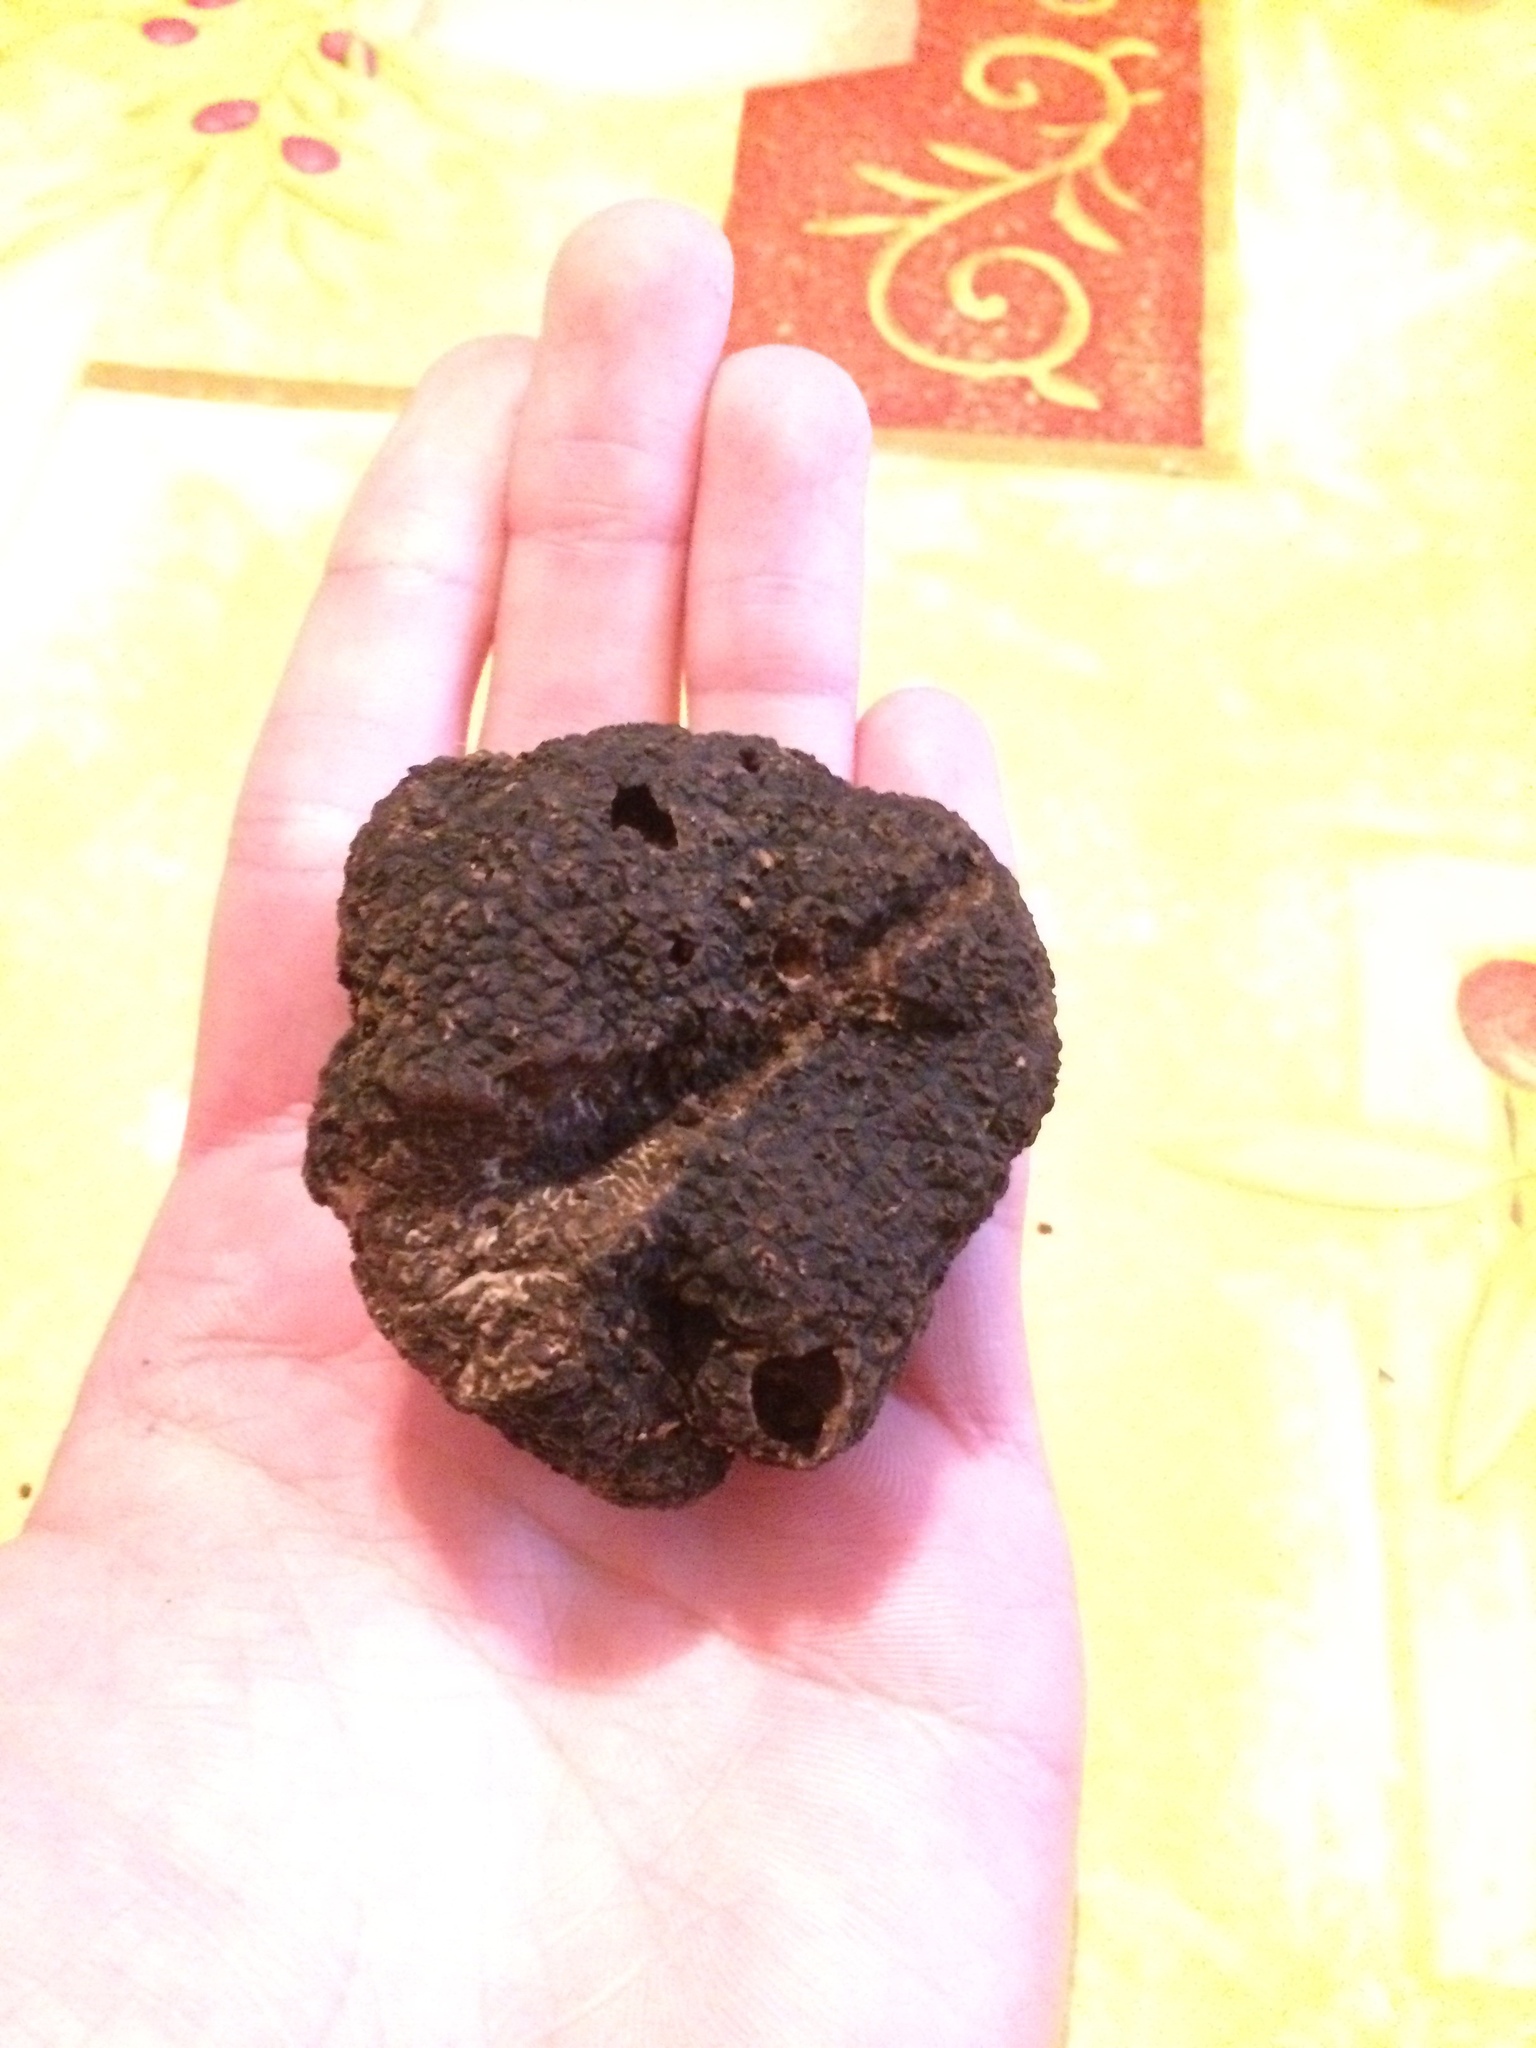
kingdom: Fungi
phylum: Ascomycota
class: Pezizomycetes
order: Pezizales
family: Tuberaceae
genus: Tuber
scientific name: Tuber melanosporum
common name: Black truffle
